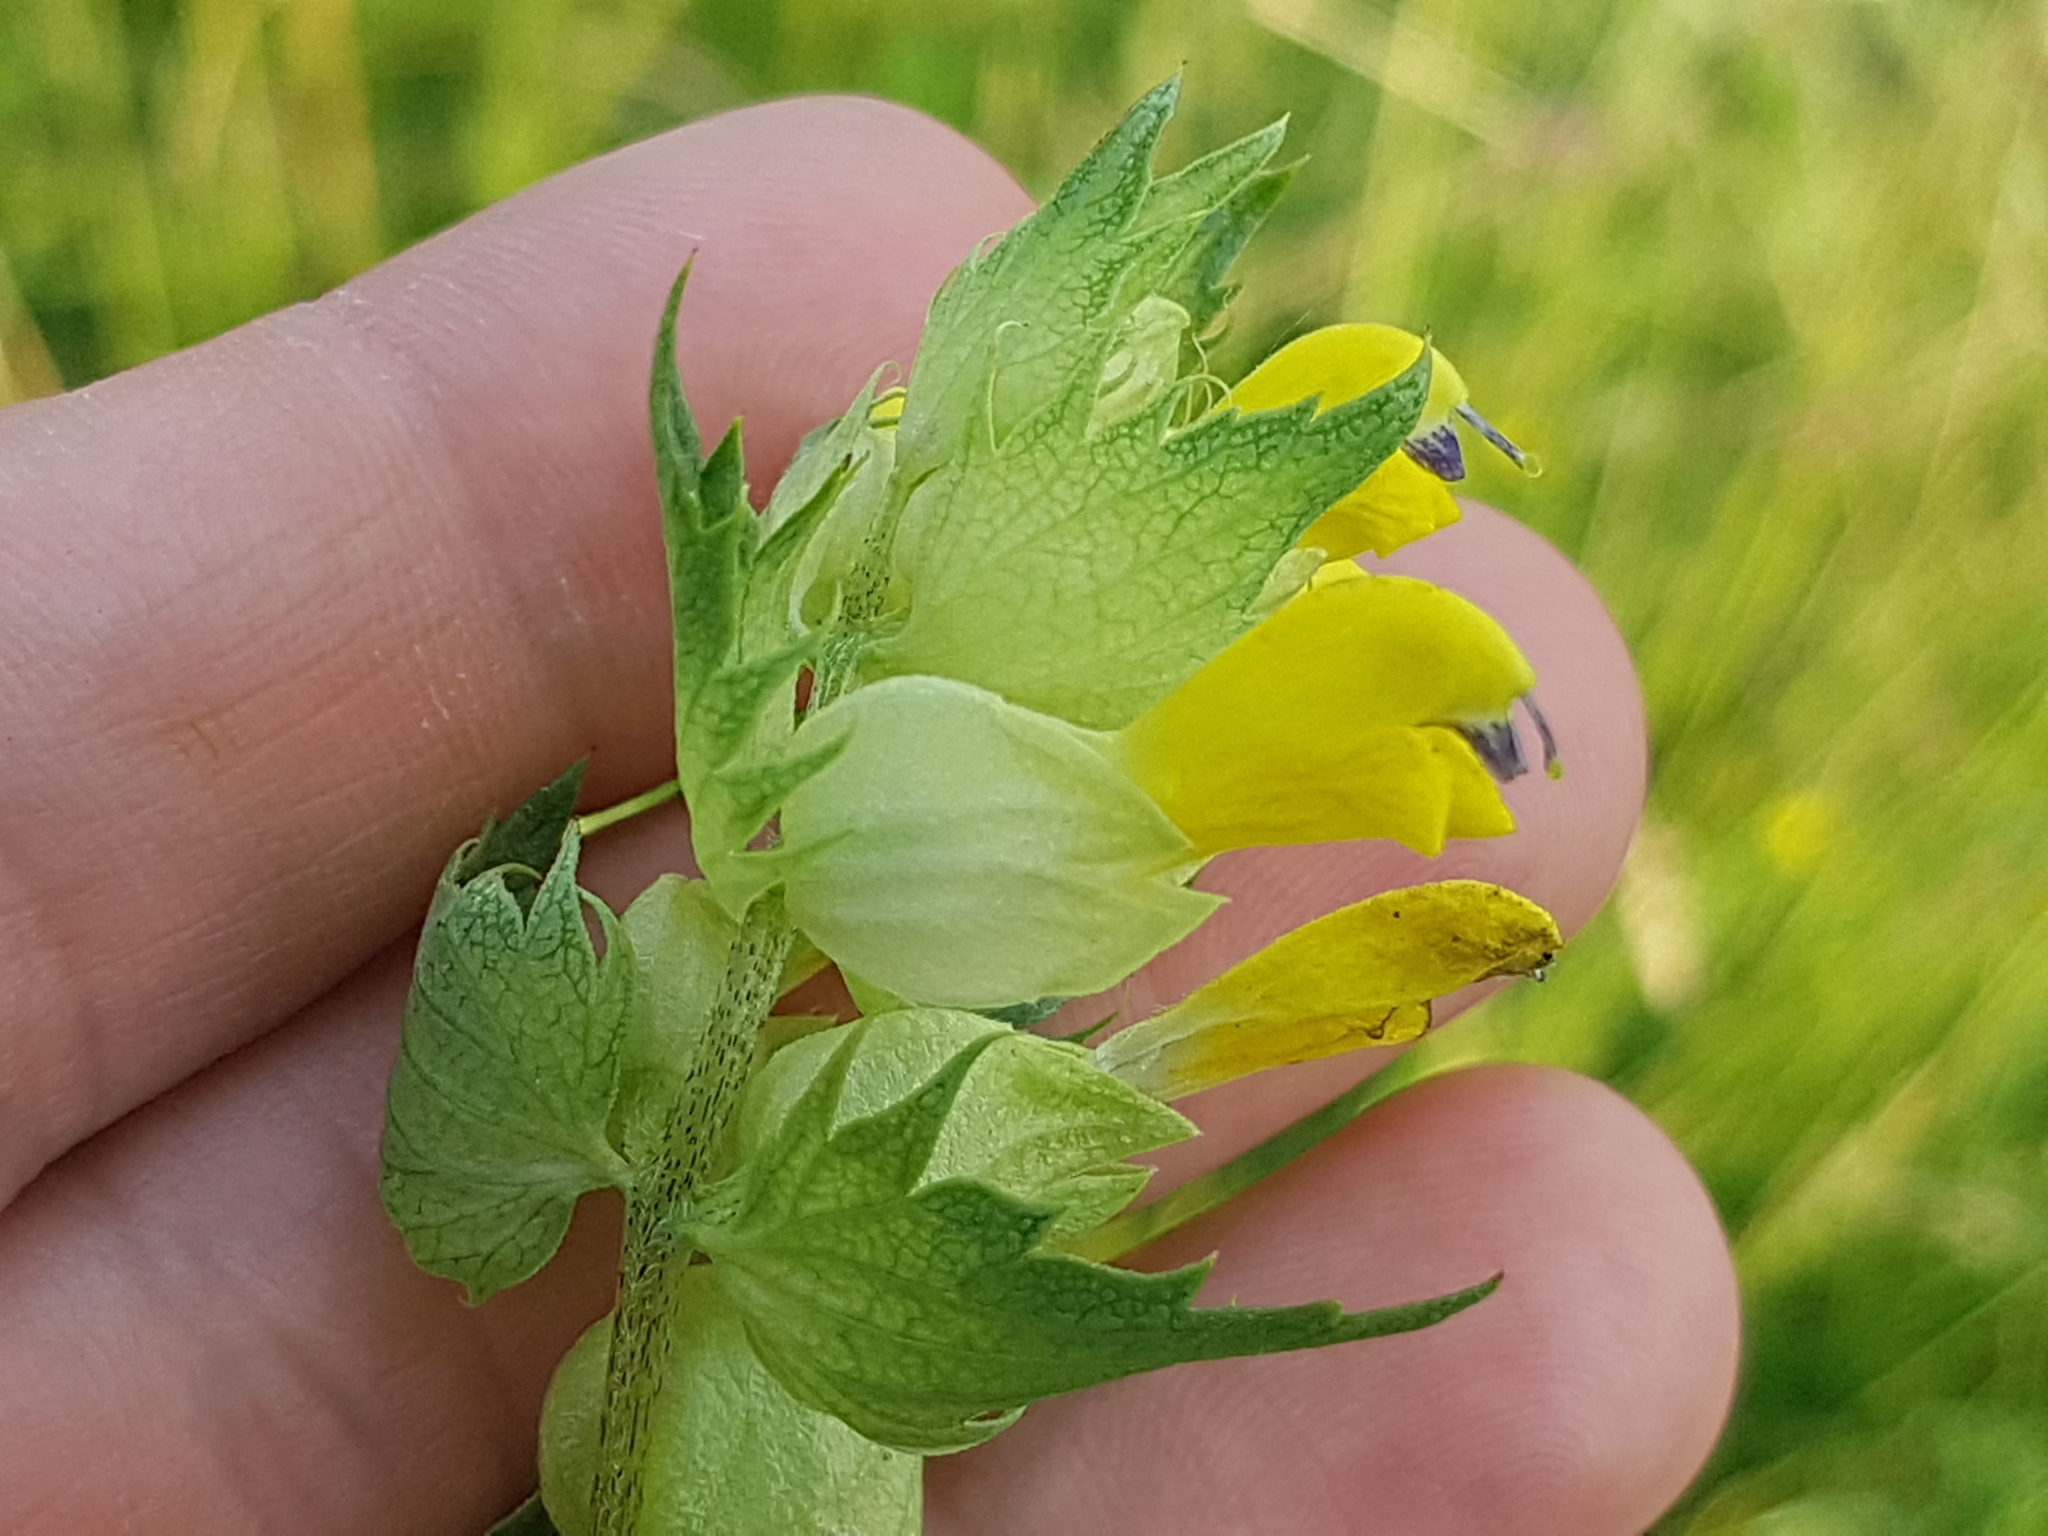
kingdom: Plantae
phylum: Tracheophyta
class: Magnoliopsida
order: Lamiales
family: Orobanchaceae
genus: Rhinanthus
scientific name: Rhinanthus serotinus
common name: Late-flowering yellow rattle
